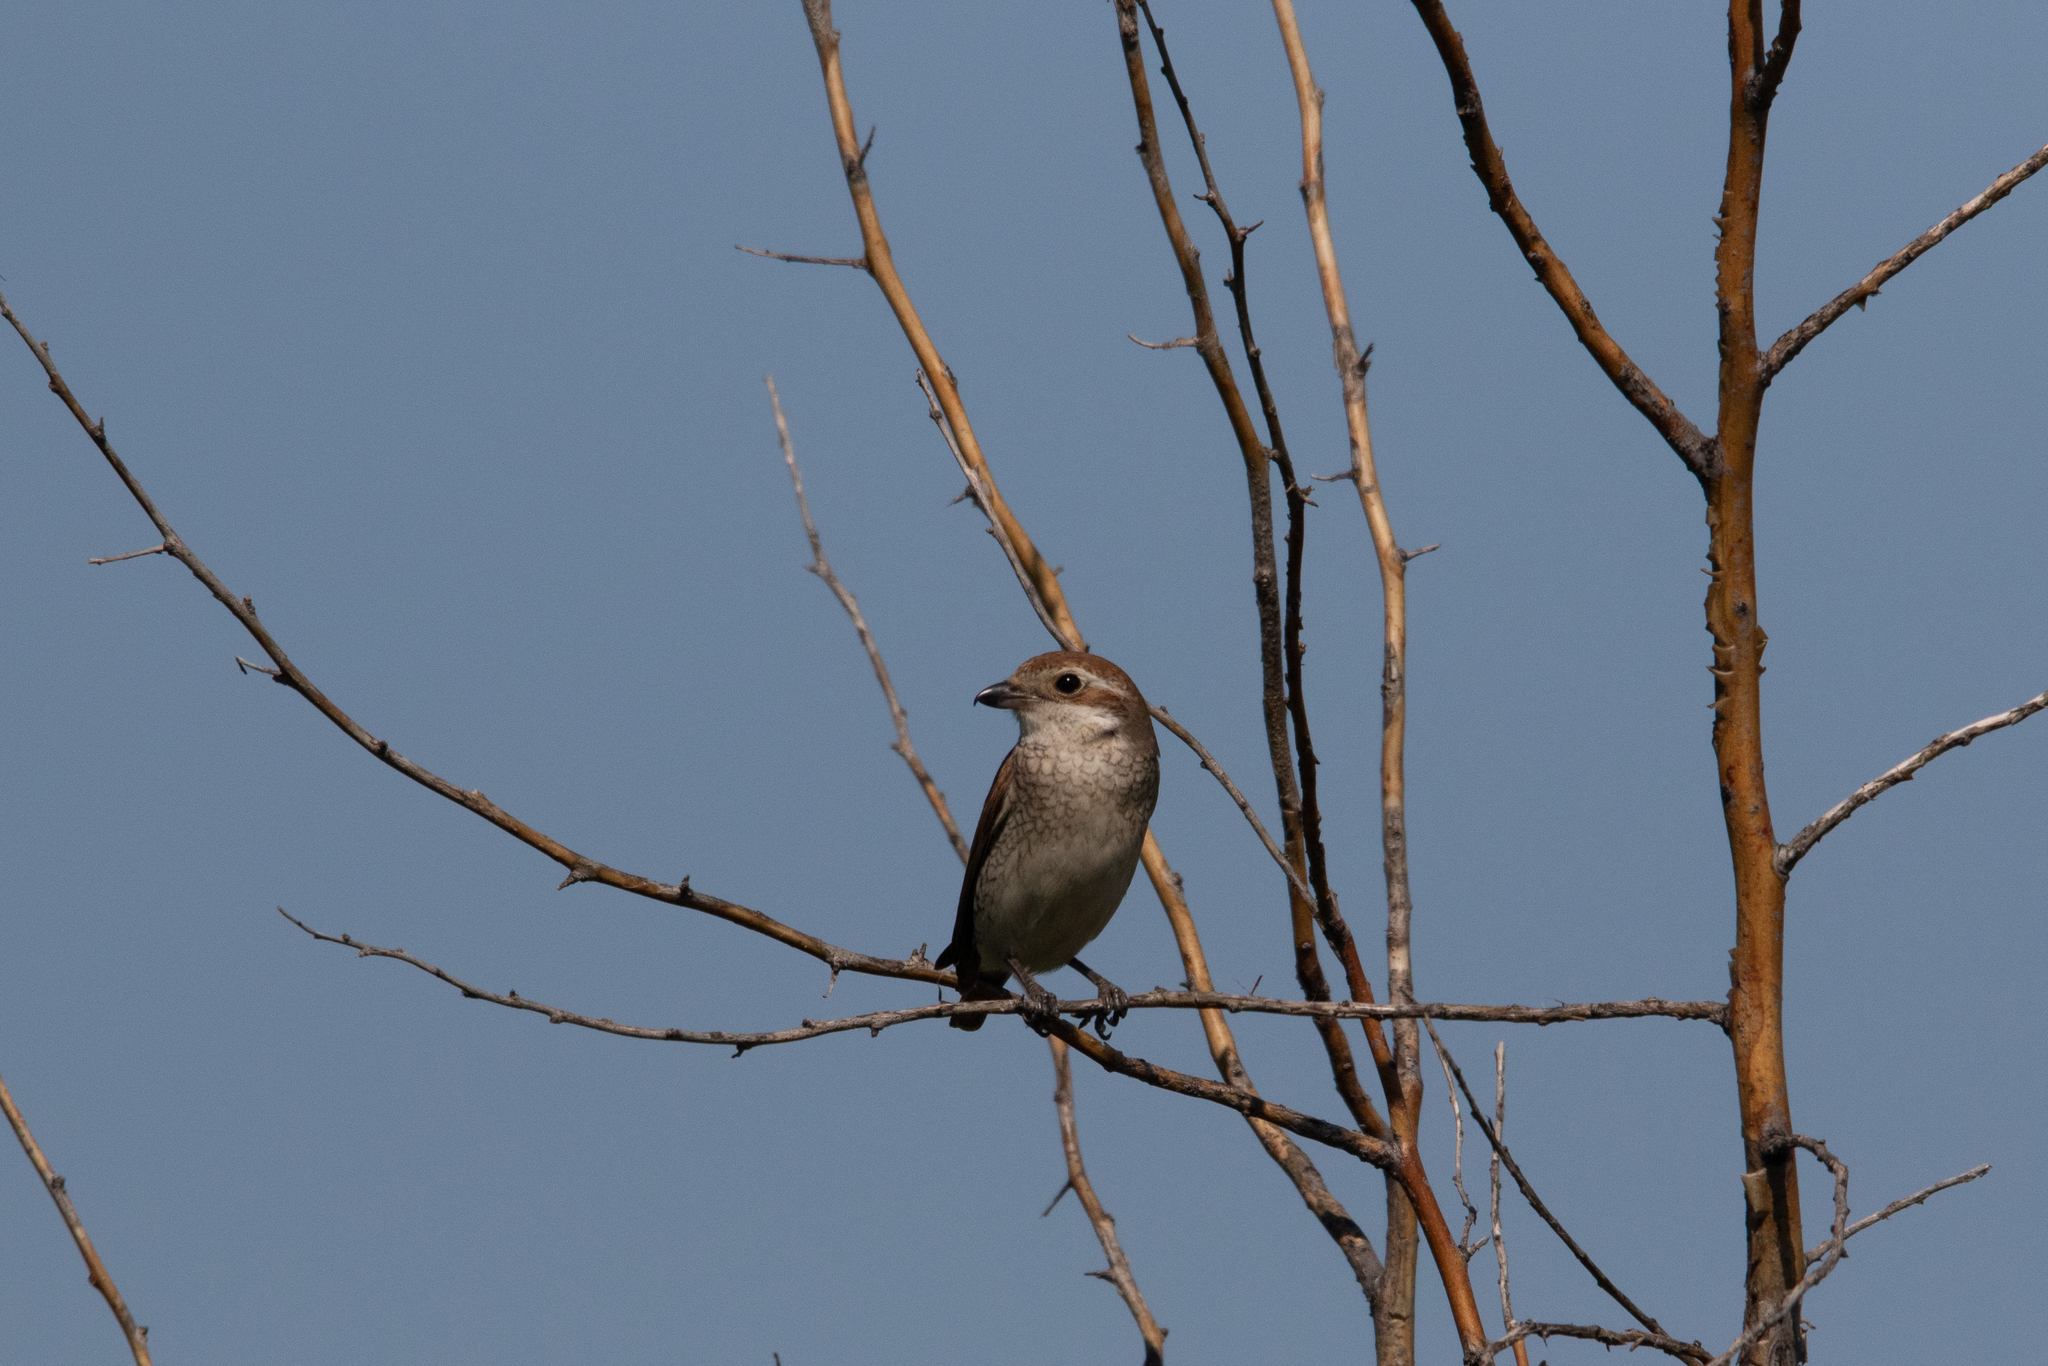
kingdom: Animalia
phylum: Chordata
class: Aves
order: Passeriformes
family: Laniidae
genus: Lanius
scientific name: Lanius collurio
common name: Red-backed shrike
